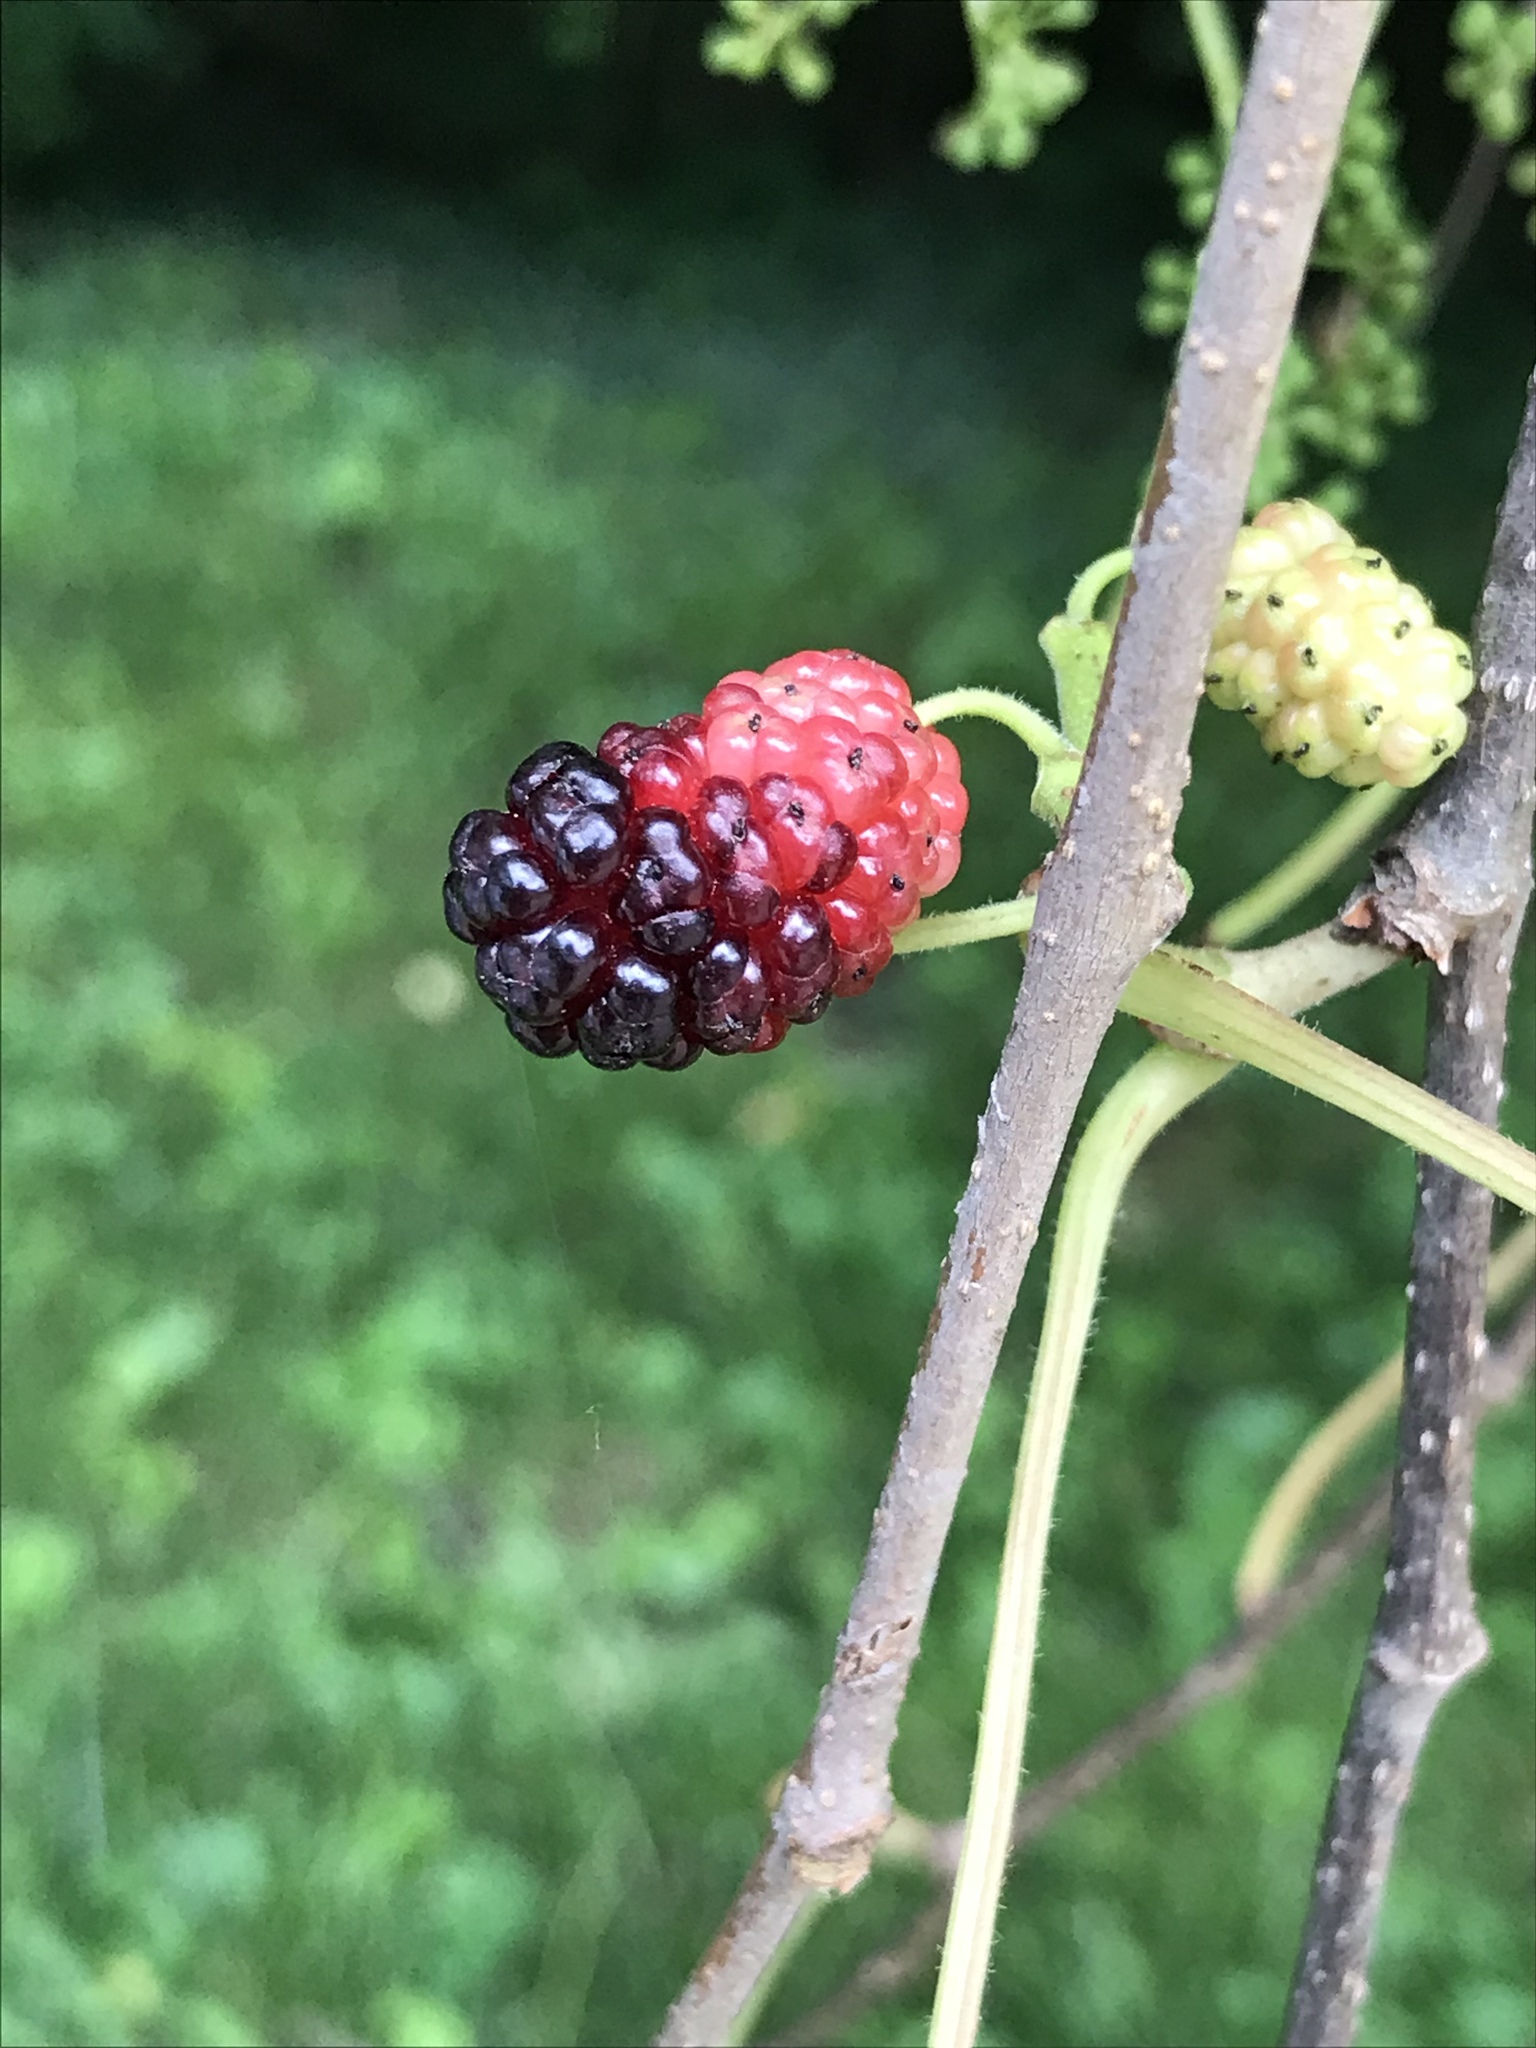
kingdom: Plantae
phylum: Tracheophyta
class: Magnoliopsida
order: Rosales
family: Moraceae
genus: Morus
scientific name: Morus alba
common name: White mulberry
